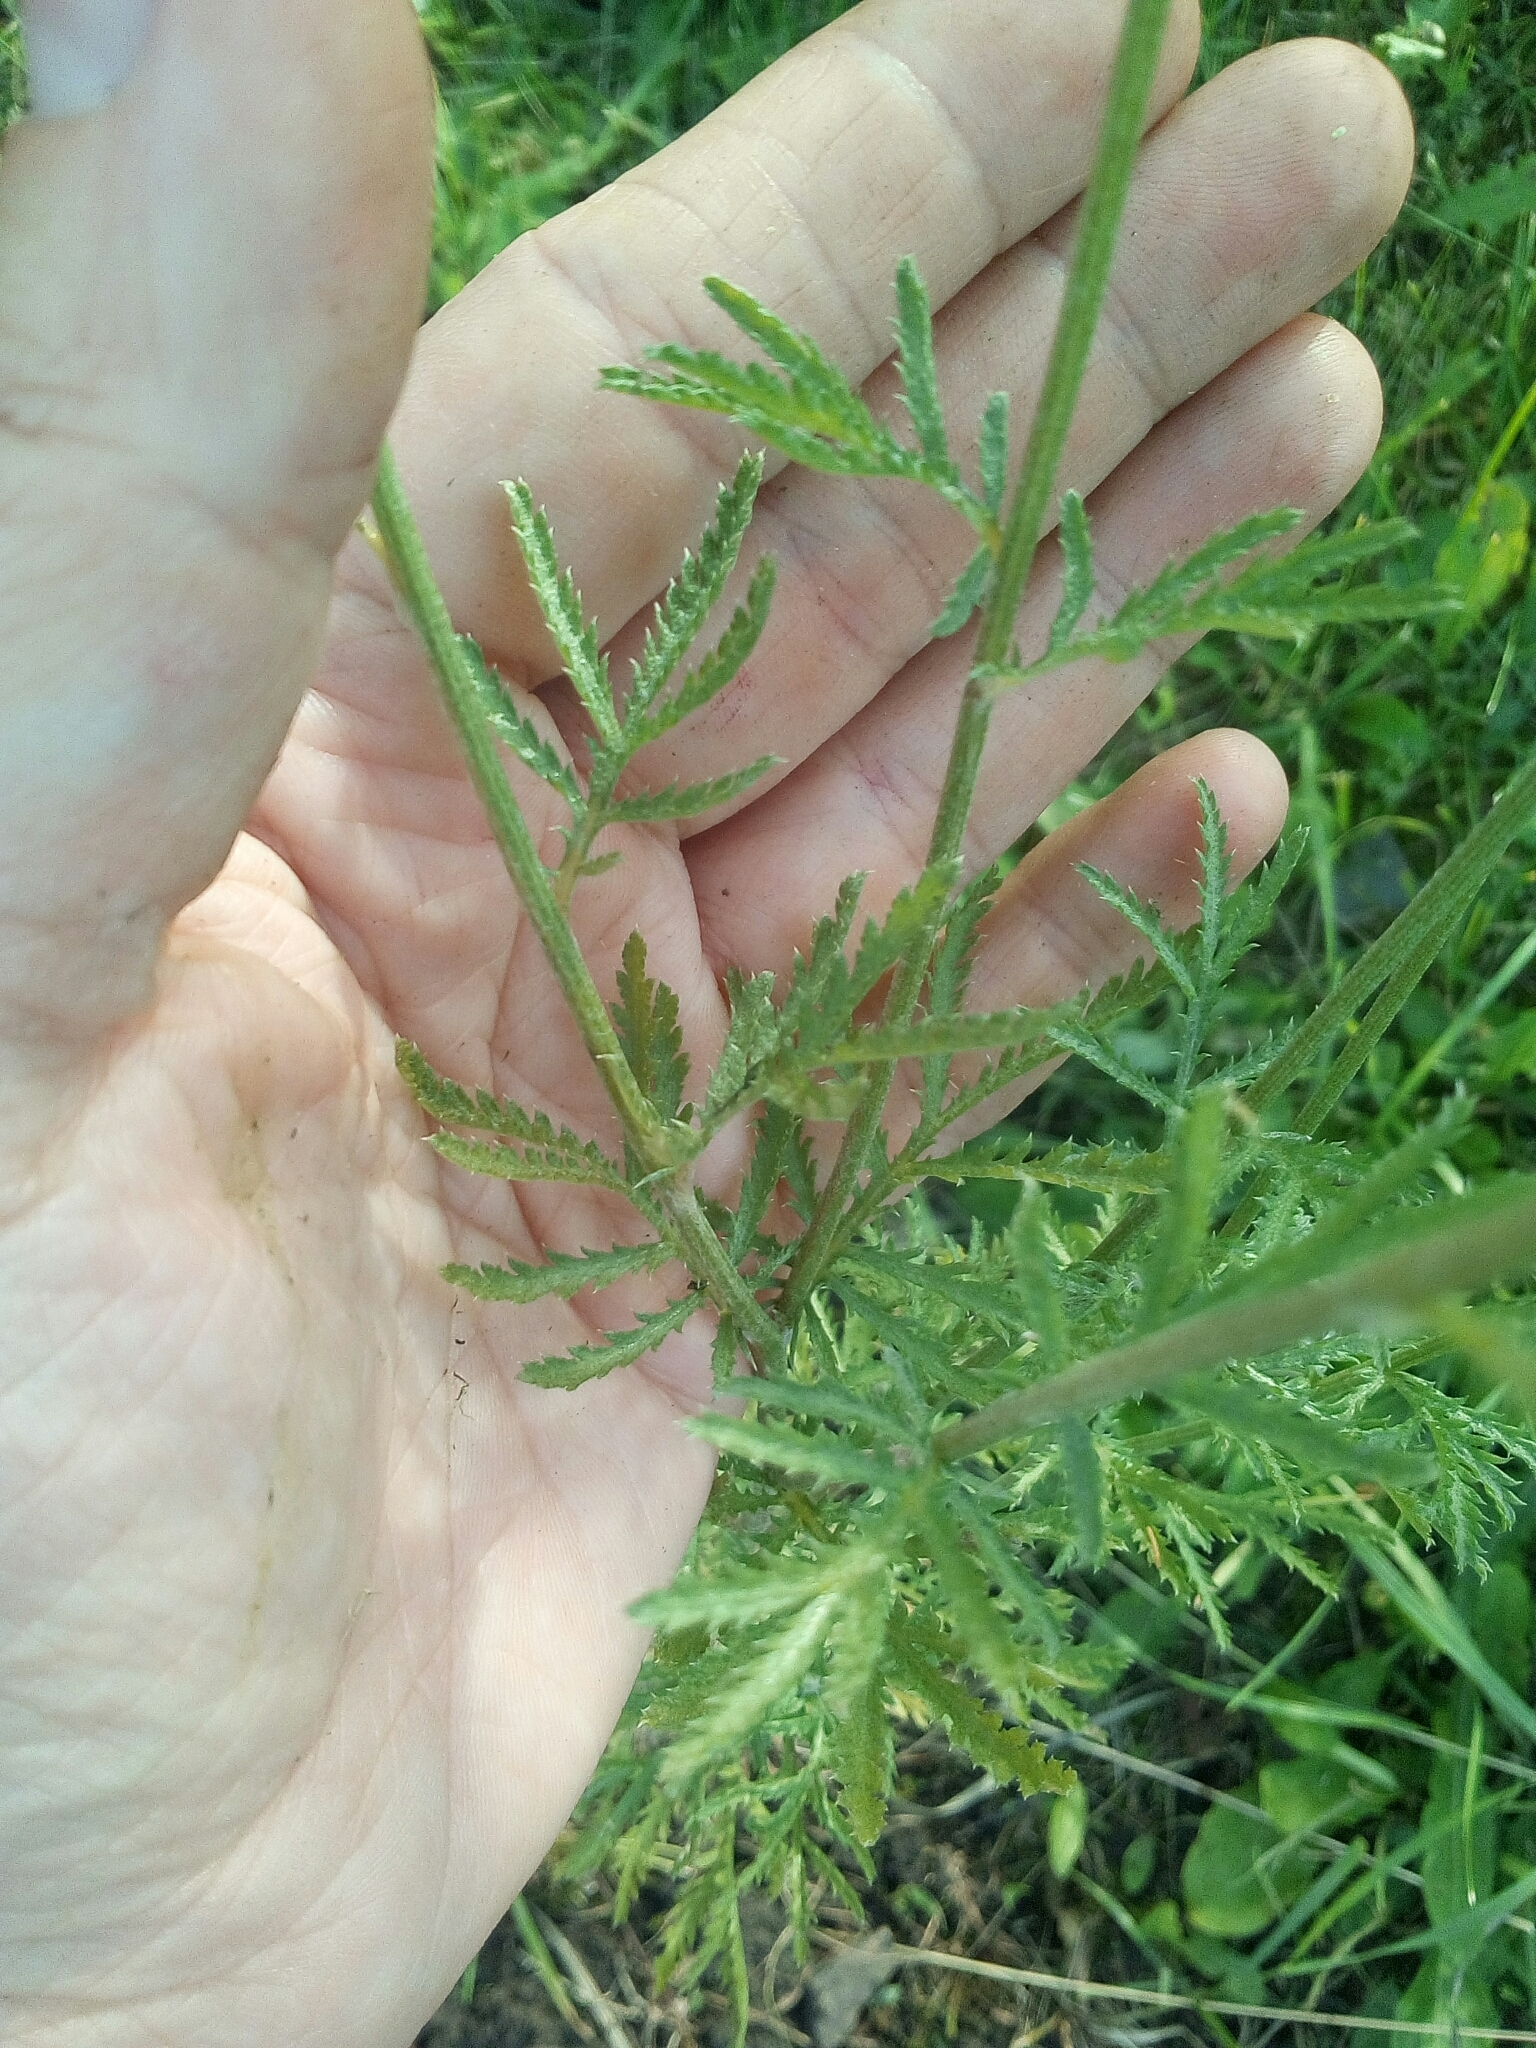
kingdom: Plantae
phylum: Tracheophyta
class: Magnoliopsida
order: Asterales
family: Asteraceae
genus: Cota
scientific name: Cota tinctoria
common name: Golden chamomile
